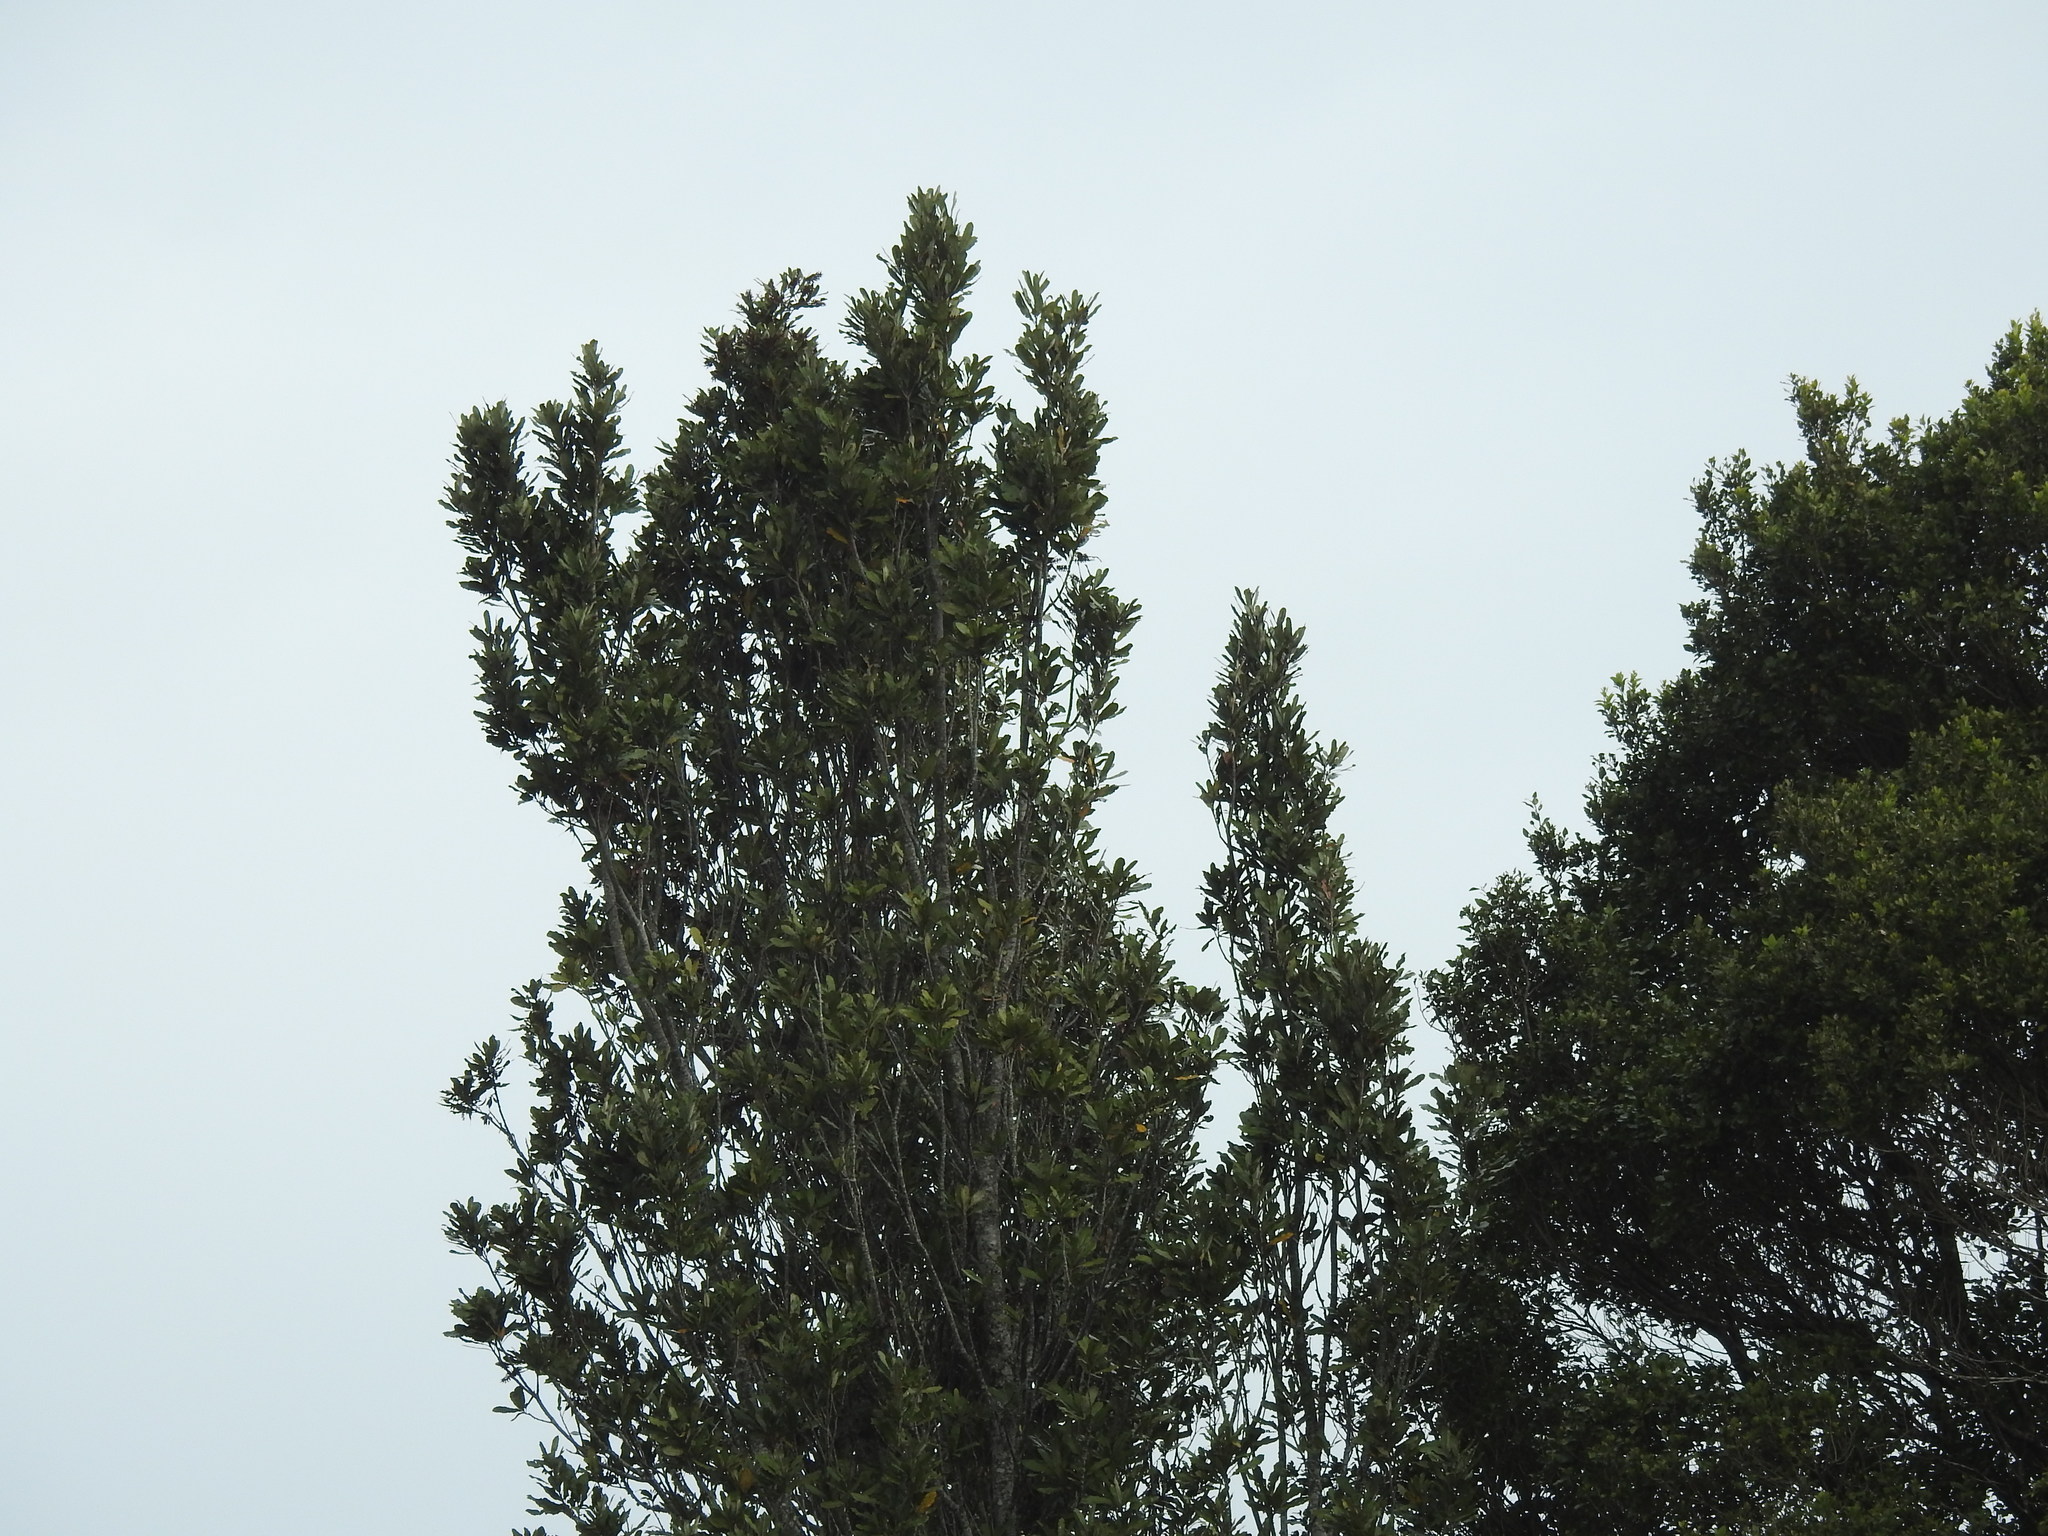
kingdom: Plantae
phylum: Tracheophyta
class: Magnoliopsida
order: Proteales
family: Proteaceae
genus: Knightia
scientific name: Knightia excelsa
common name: New zealand-honeysuckle
